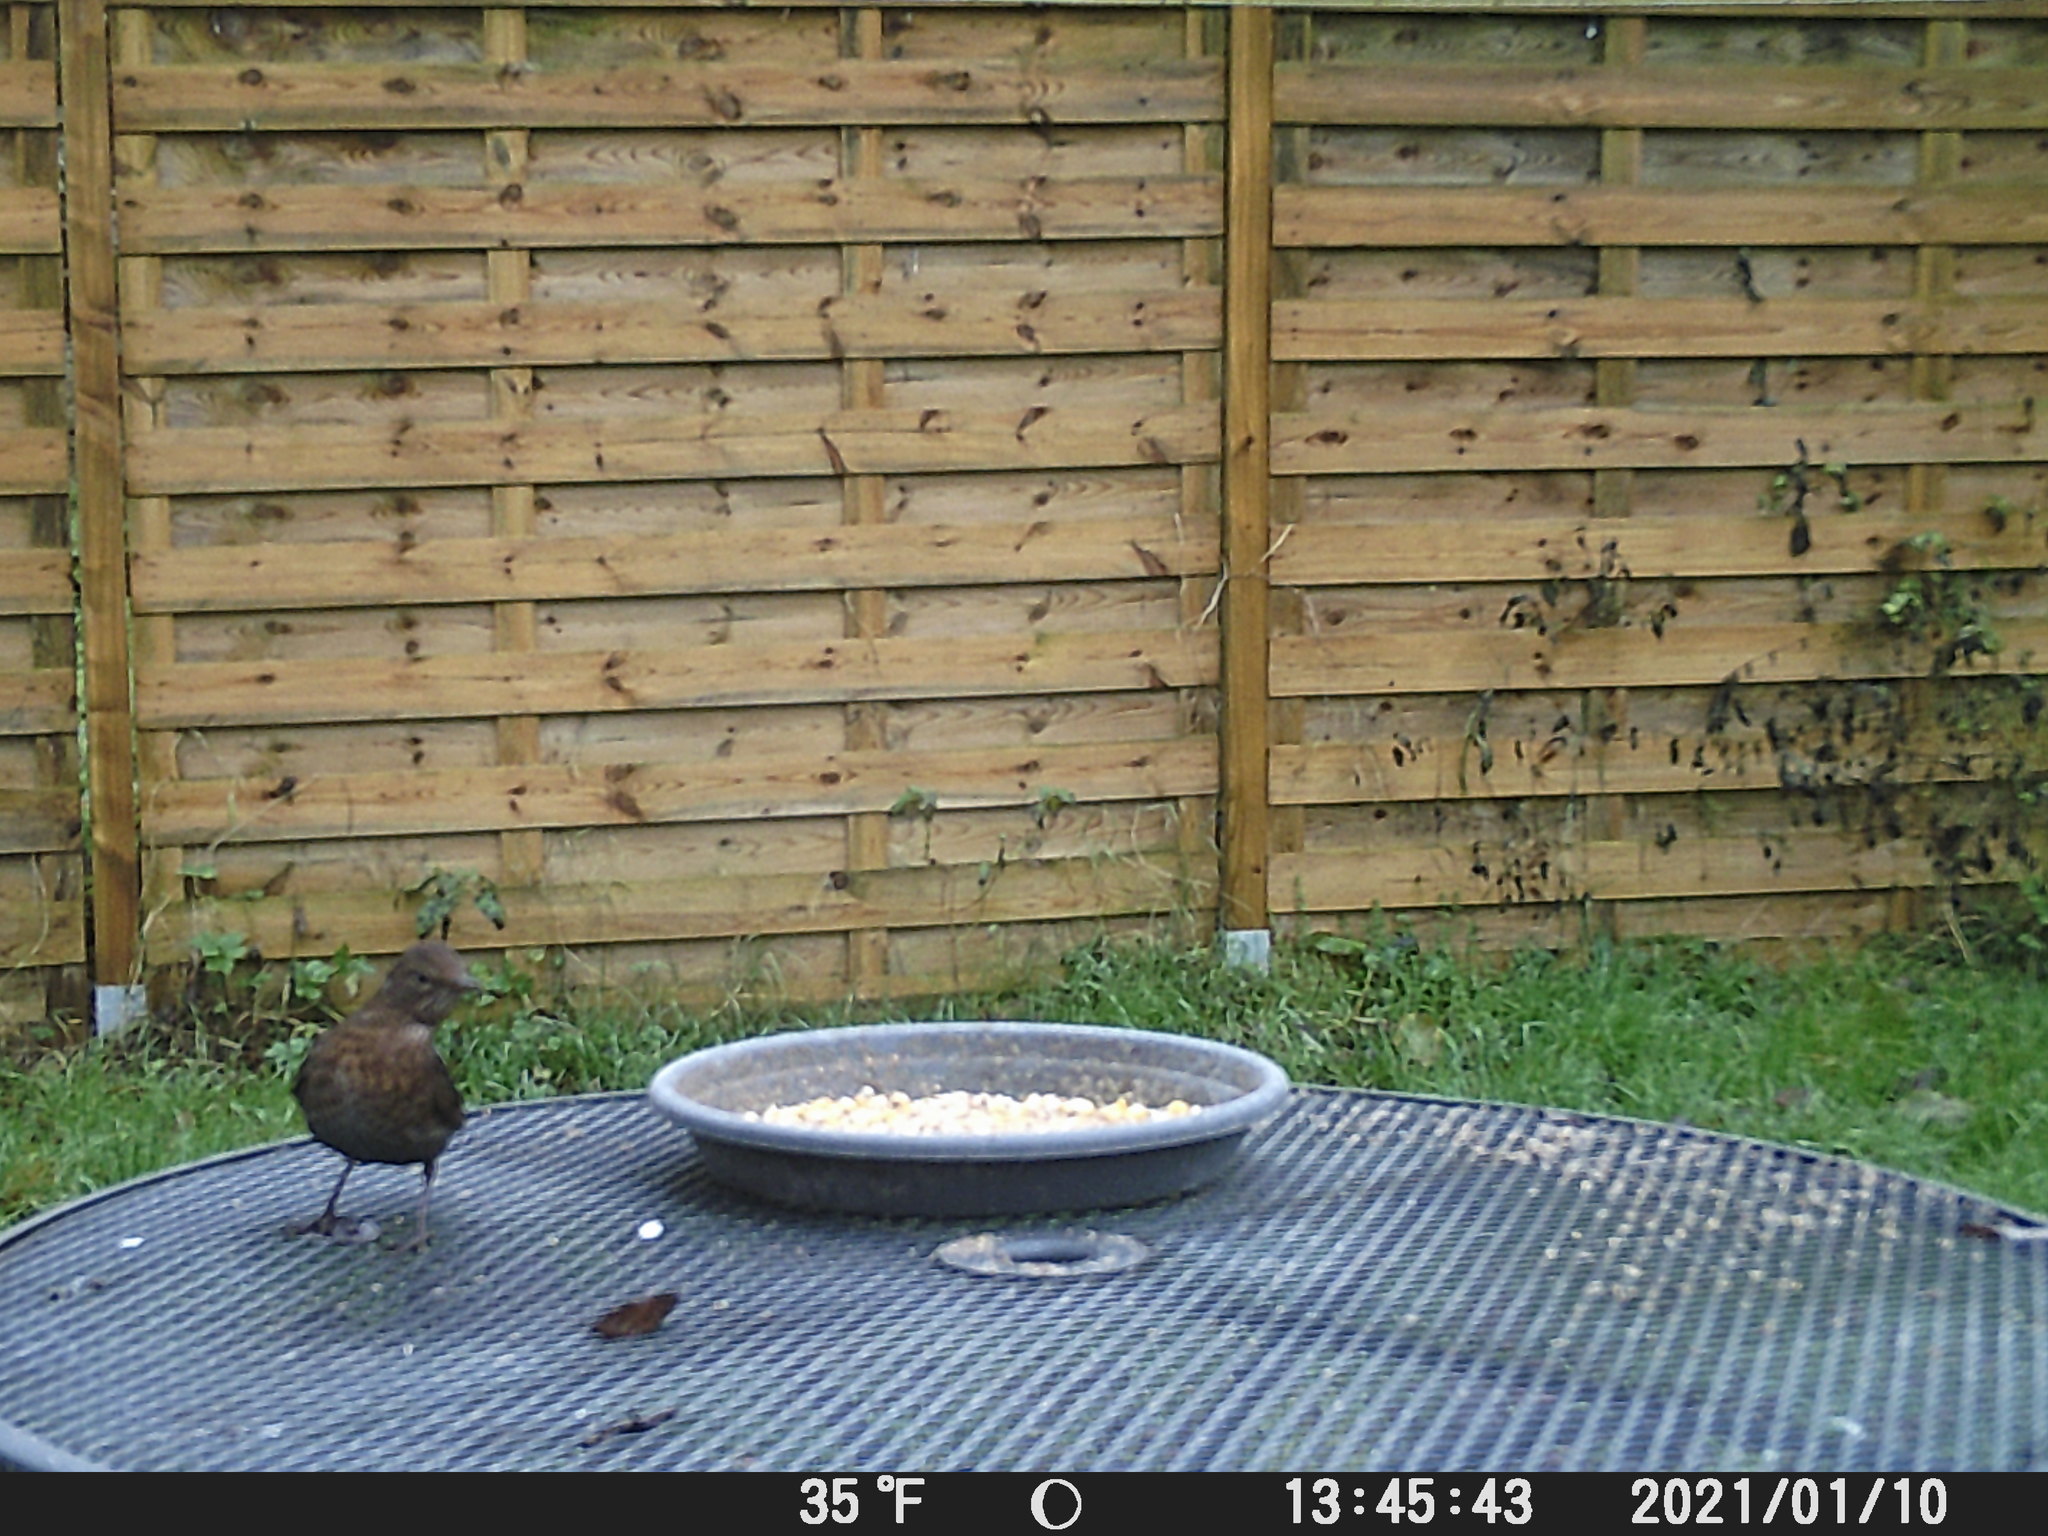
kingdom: Animalia
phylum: Chordata
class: Aves
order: Passeriformes
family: Turdidae
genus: Turdus
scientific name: Turdus merula
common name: Common blackbird
